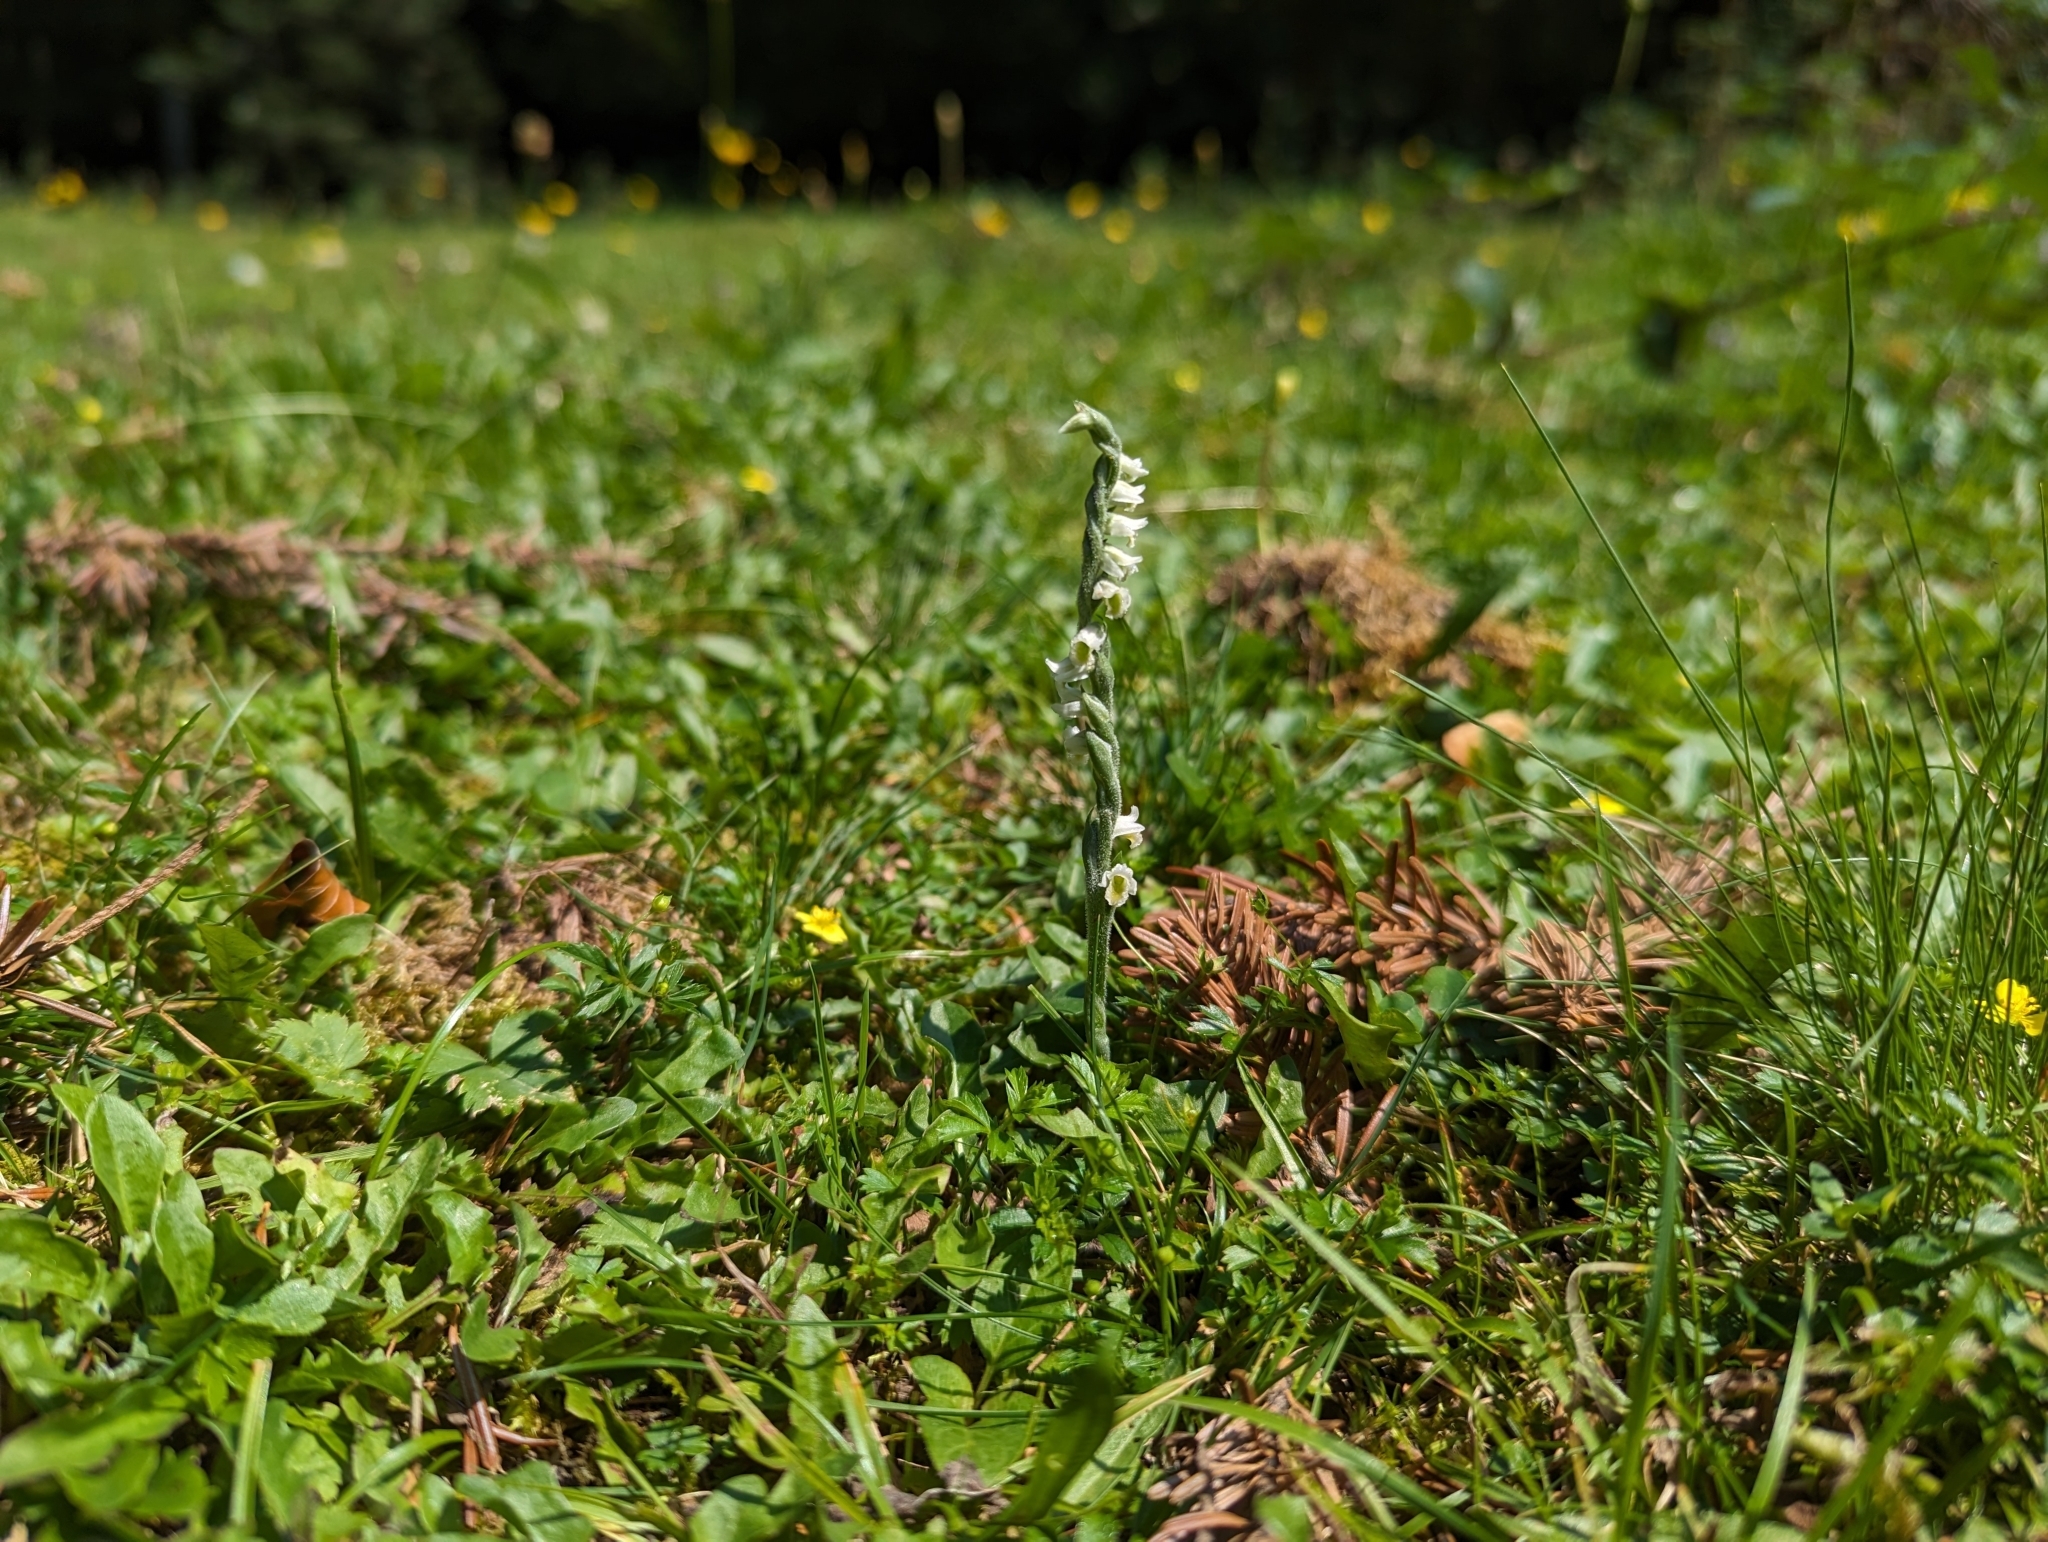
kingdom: Plantae
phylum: Tracheophyta
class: Liliopsida
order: Asparagales
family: Orchidaceae
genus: Spiranthes
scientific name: Spiranthes spiralis
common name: Autumn lady's-tresses
